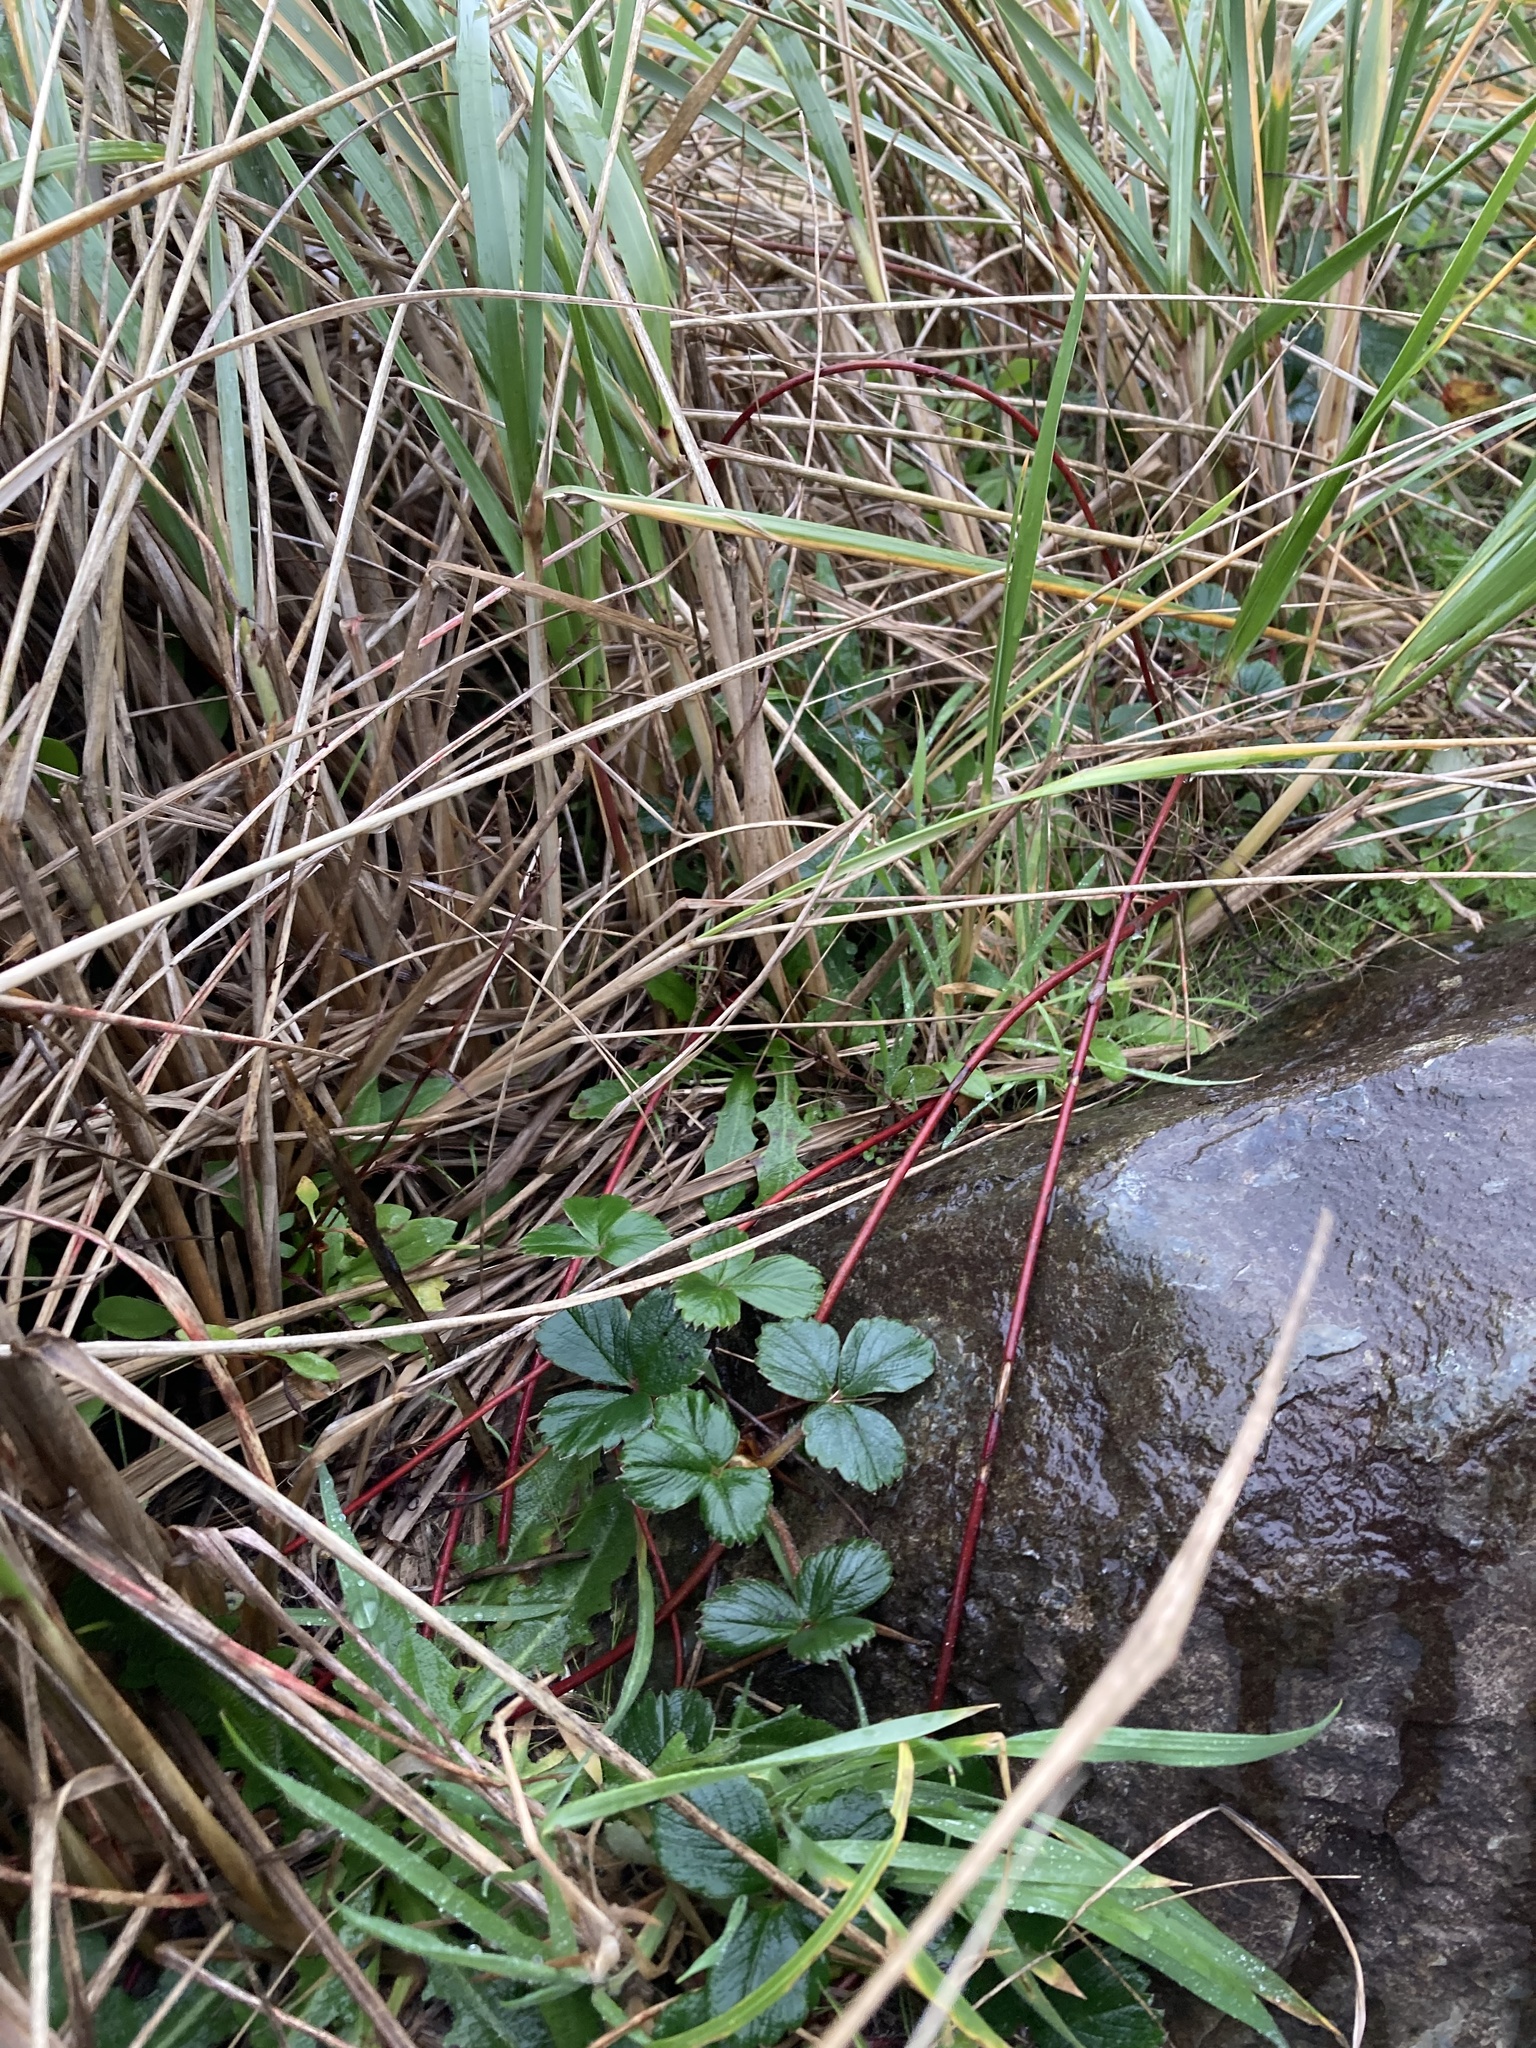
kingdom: Plantae
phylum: Tracheophyta
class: Magnoliopsida
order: Rosales
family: Rosaceae
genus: Fragaria
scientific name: Fragaria chiloensis
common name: Beach strawberry
